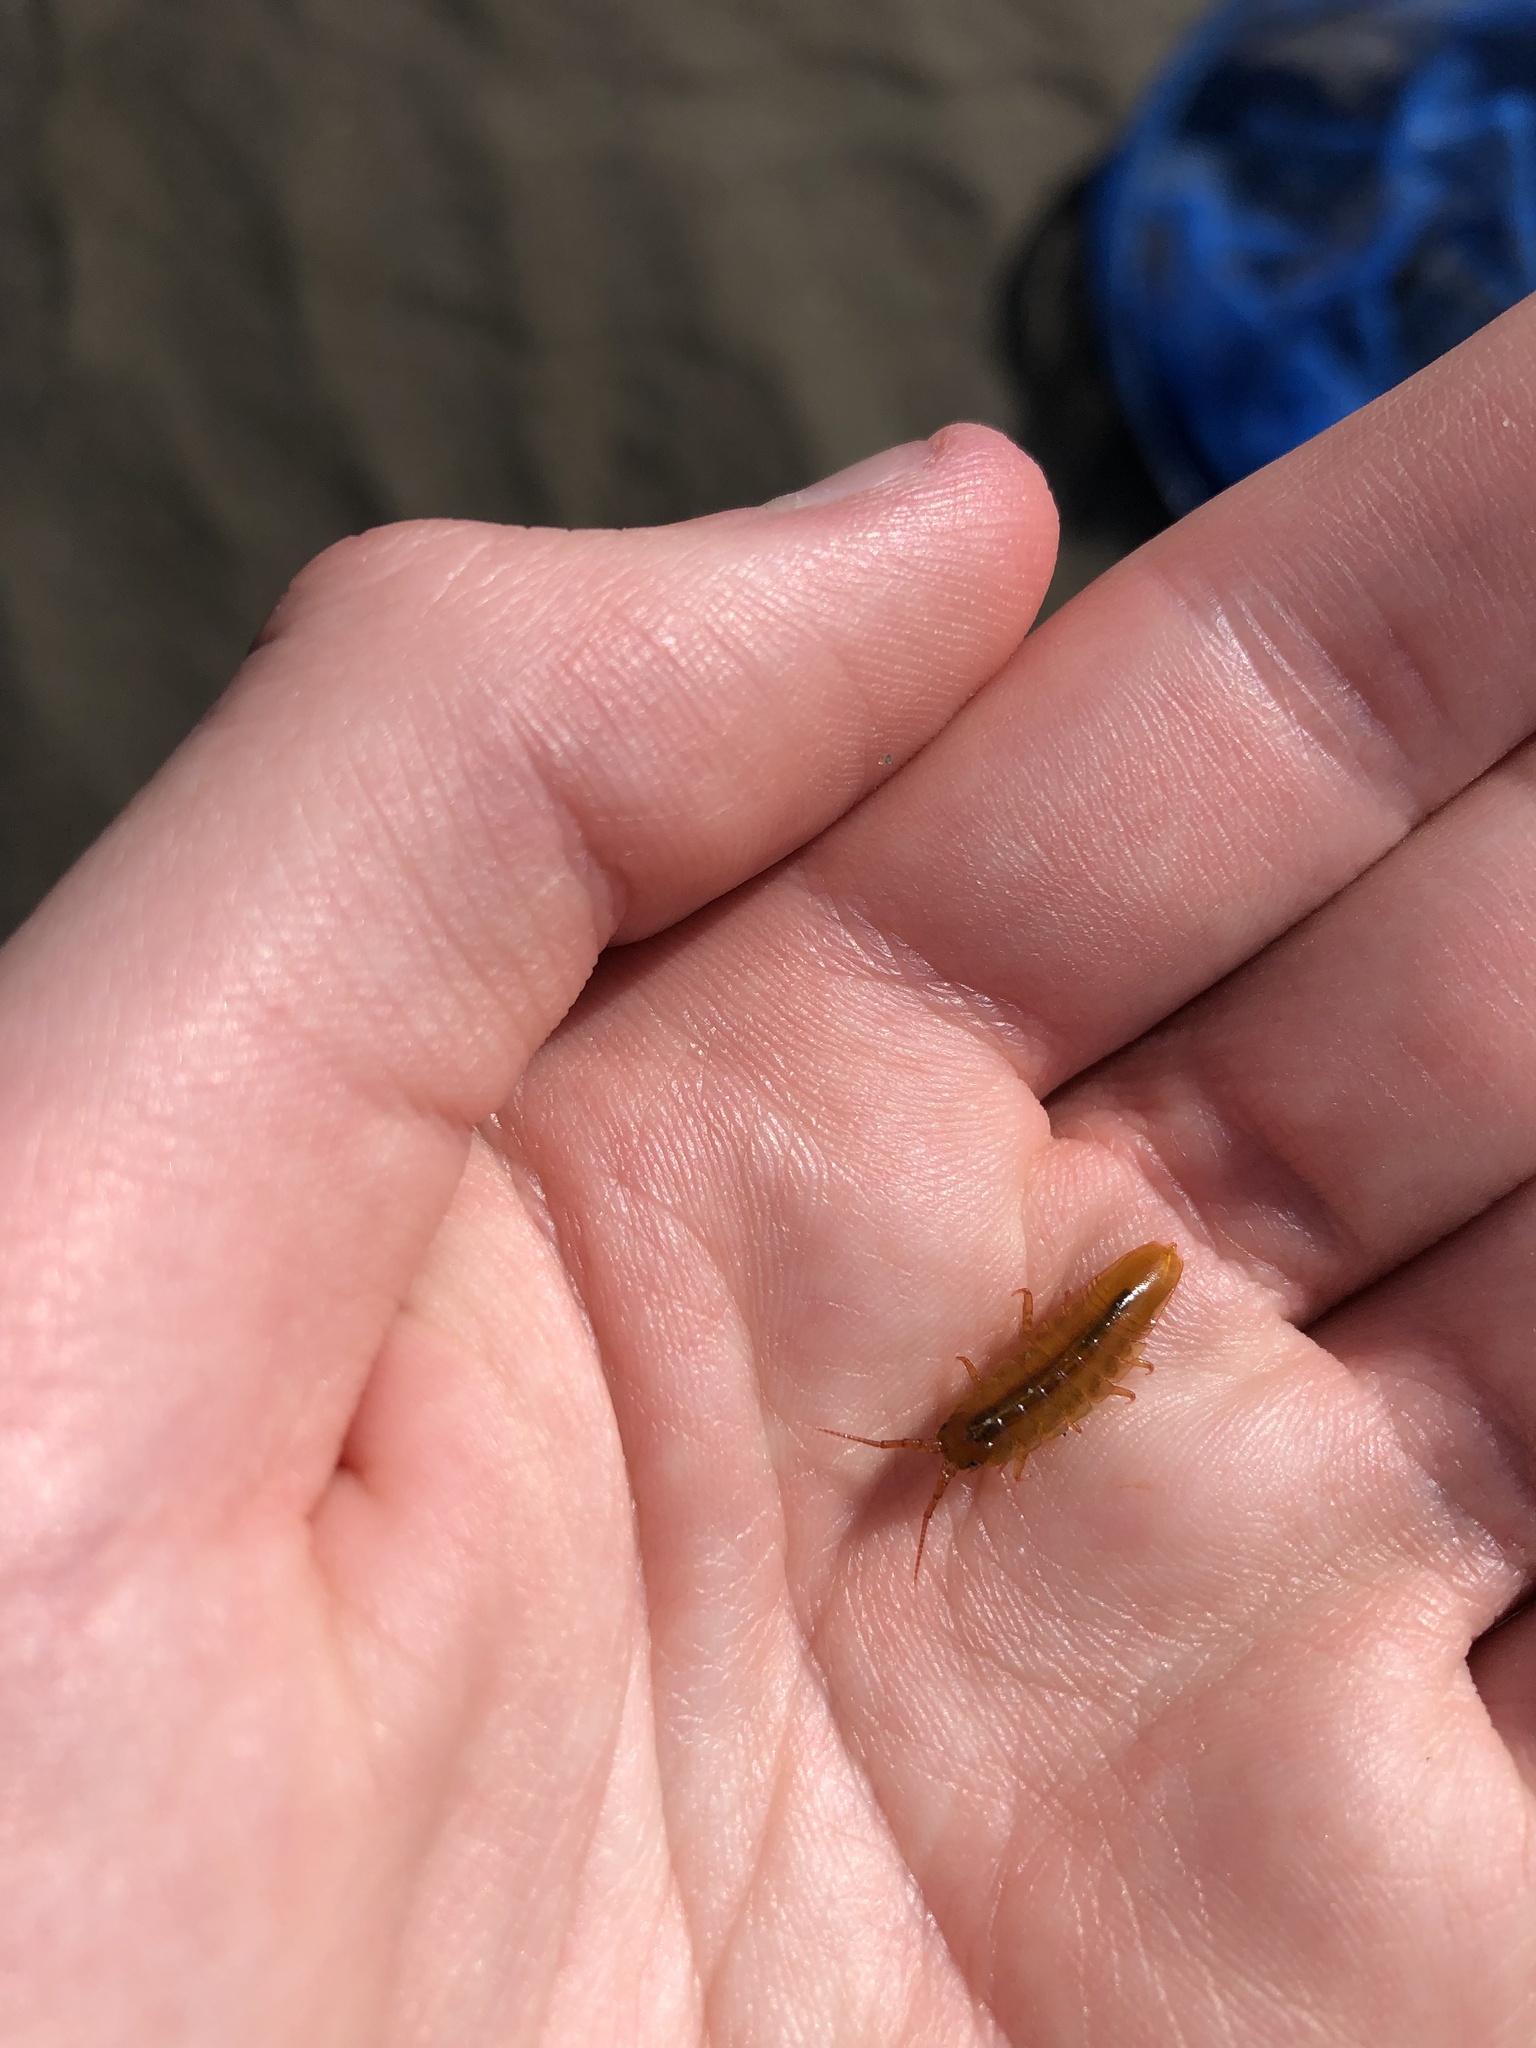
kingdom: Animalia
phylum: Arthropoda
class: Malacostraca
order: Isopoda
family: Idoteidae
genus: Idotea
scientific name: Idotea balthica
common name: Baltic isopod
